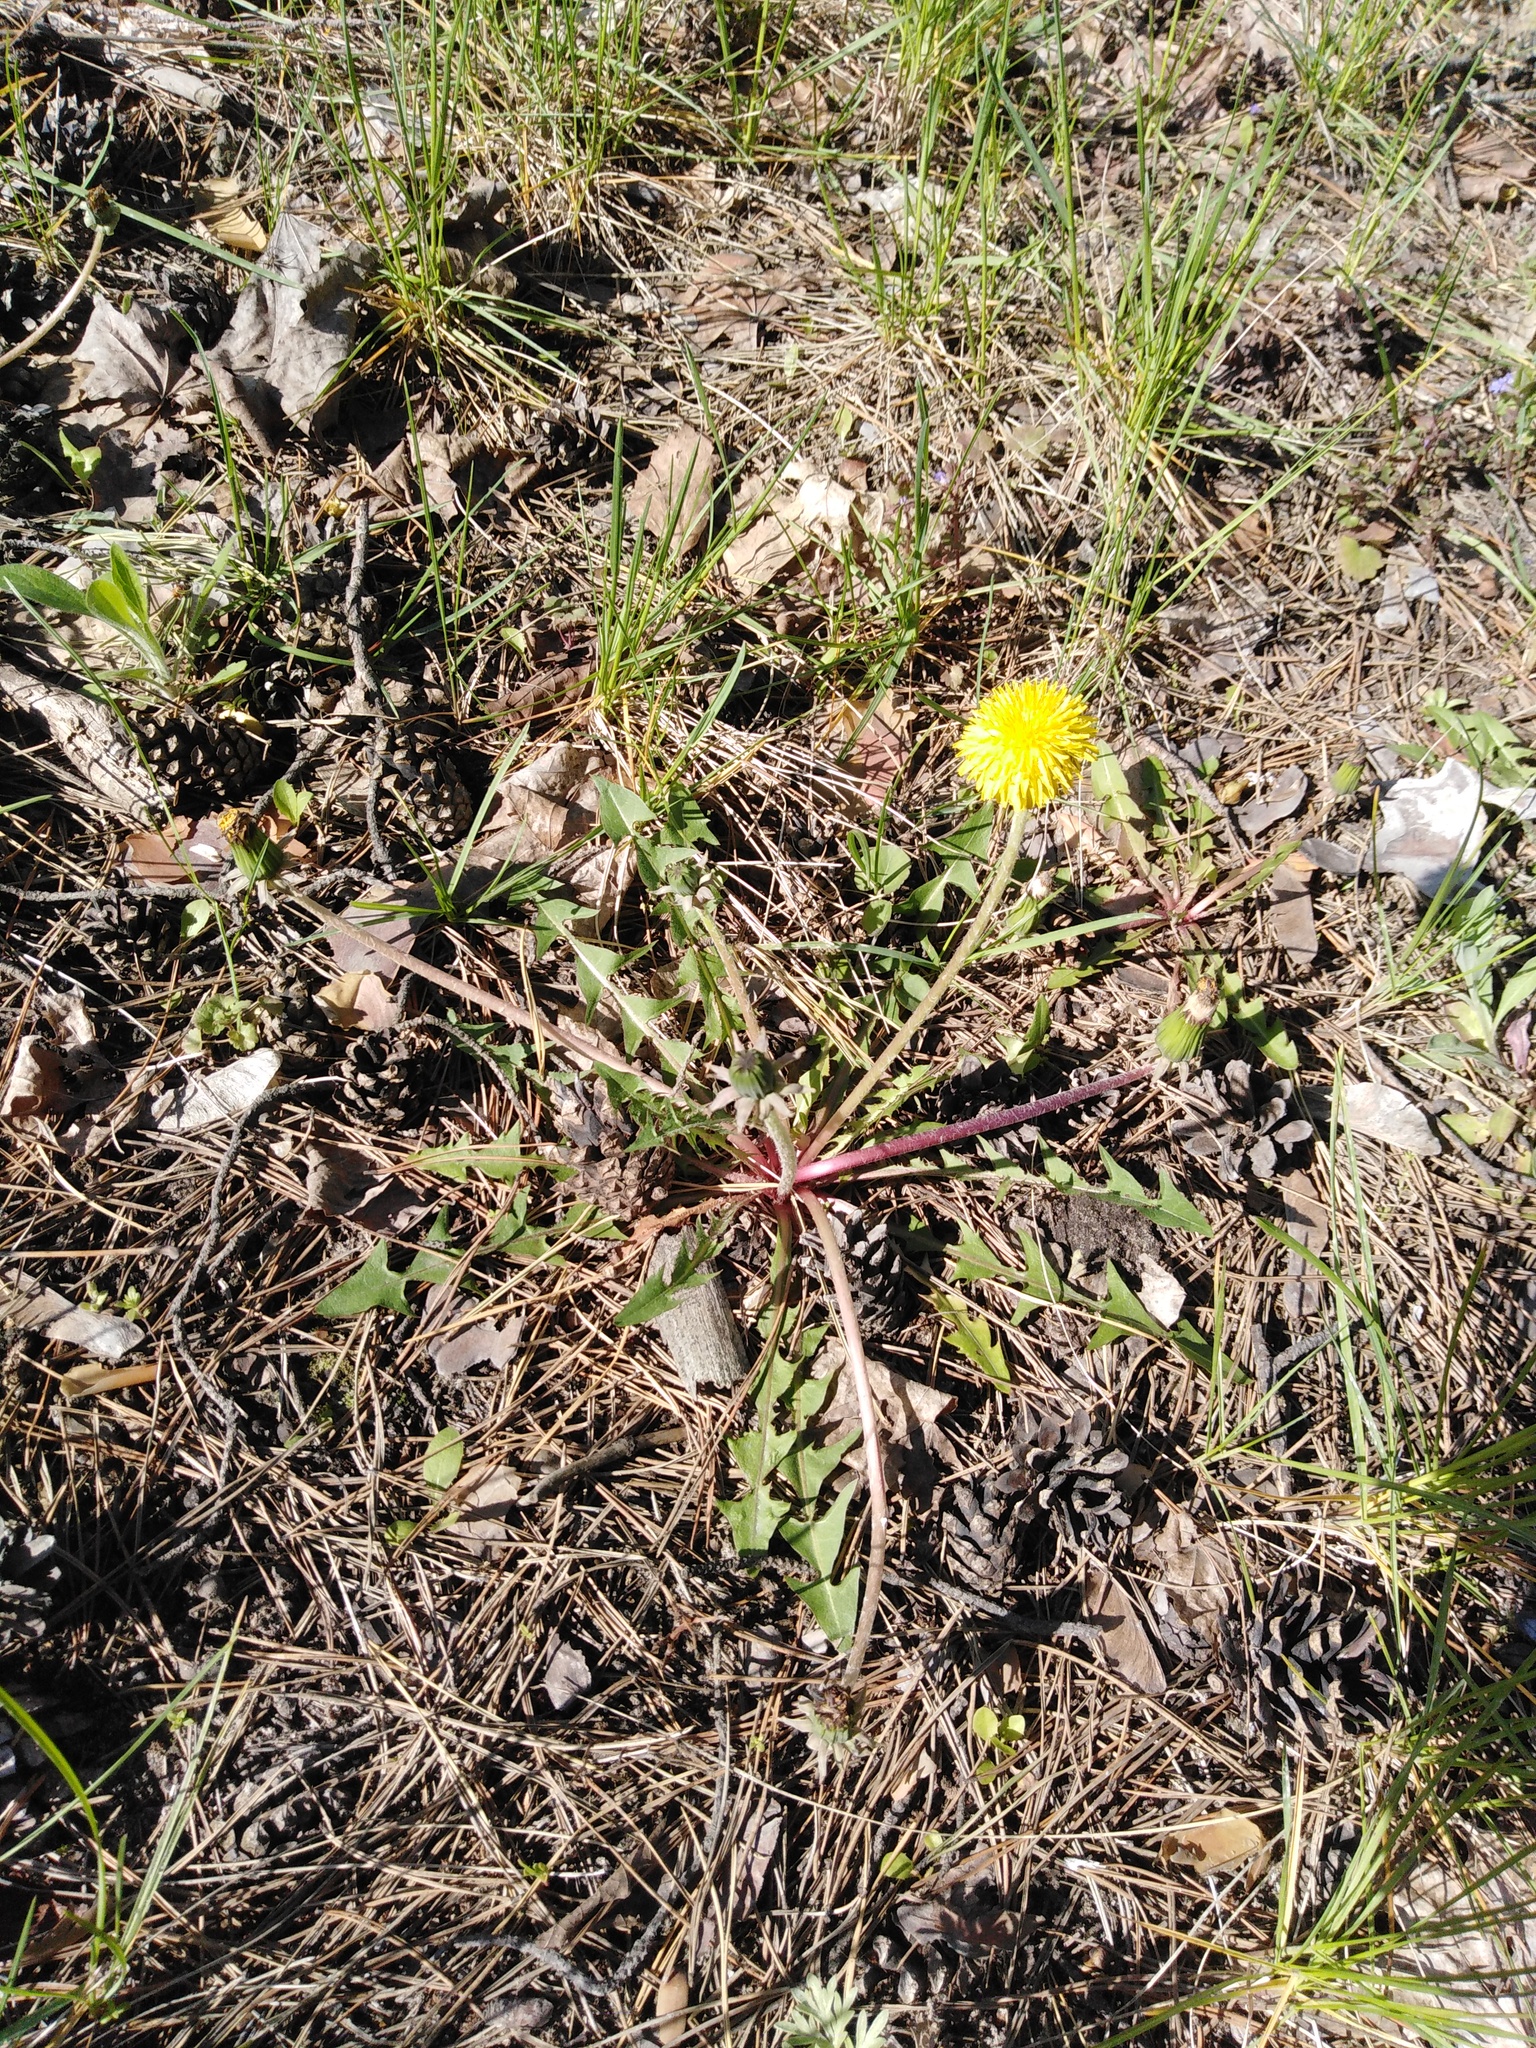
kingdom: Plantae
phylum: Tracheophyta
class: Magnoliopsida
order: Asterales
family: Asteraceae
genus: Taraxacum
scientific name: Taraxacum officinale
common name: Common dandelion
